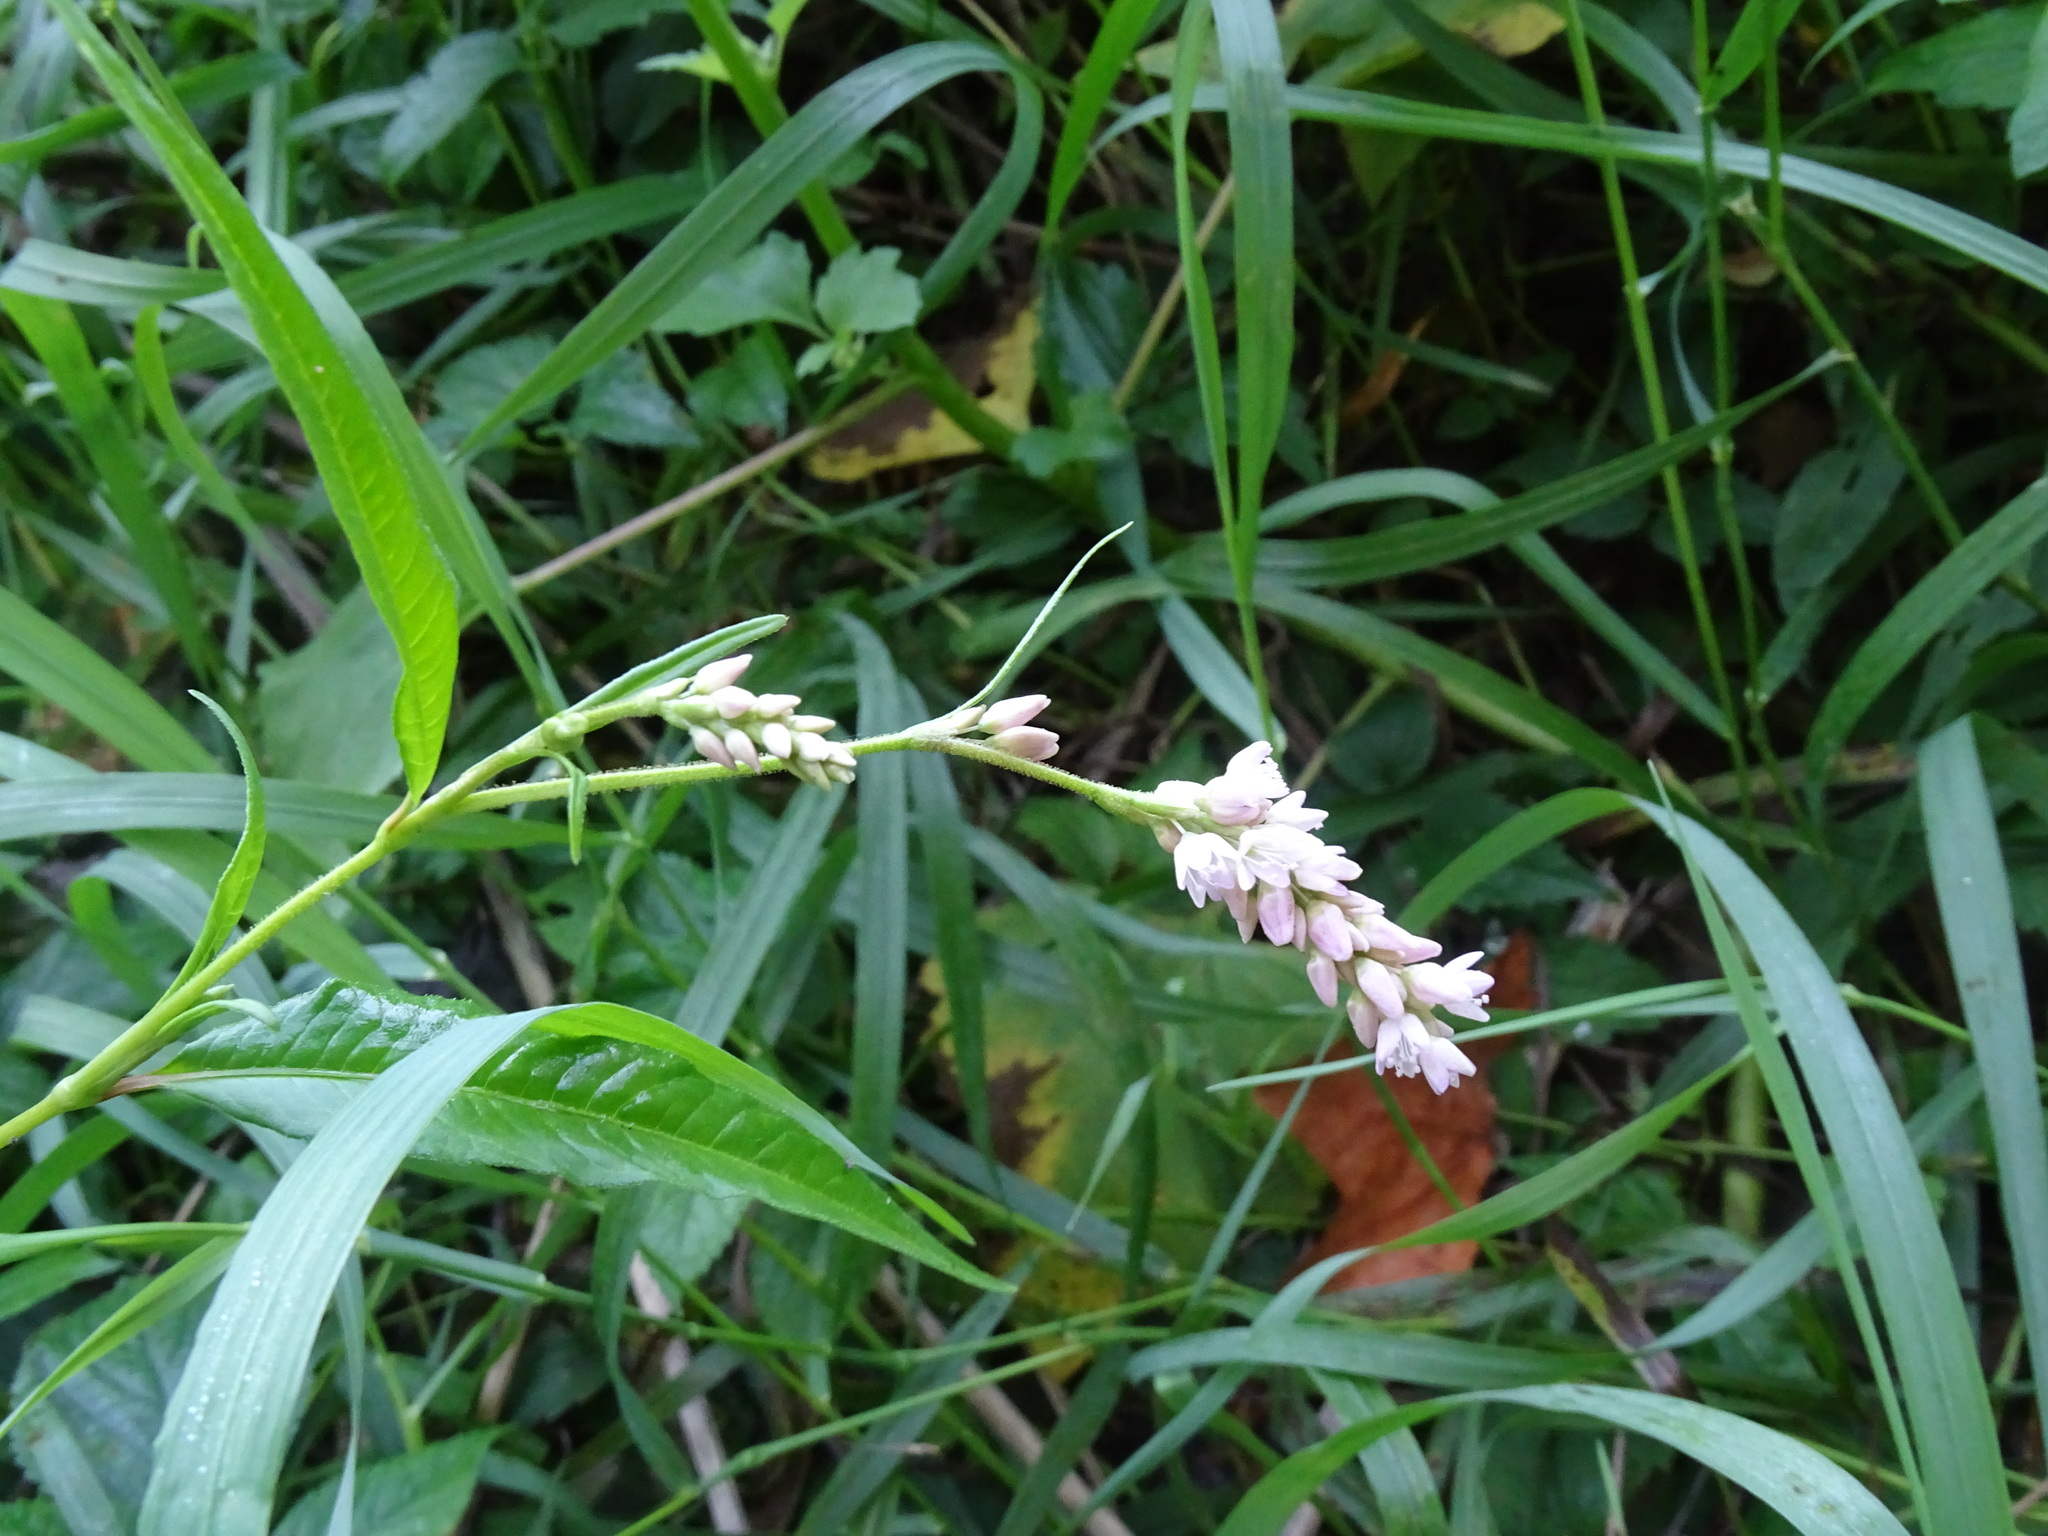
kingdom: Plantae
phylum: Tracheophyta
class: Magnoliopsida
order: Caryophyllales
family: Polygonaceae
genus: Persicaria
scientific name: Persicaria pensylvanica
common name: Pinkweed
